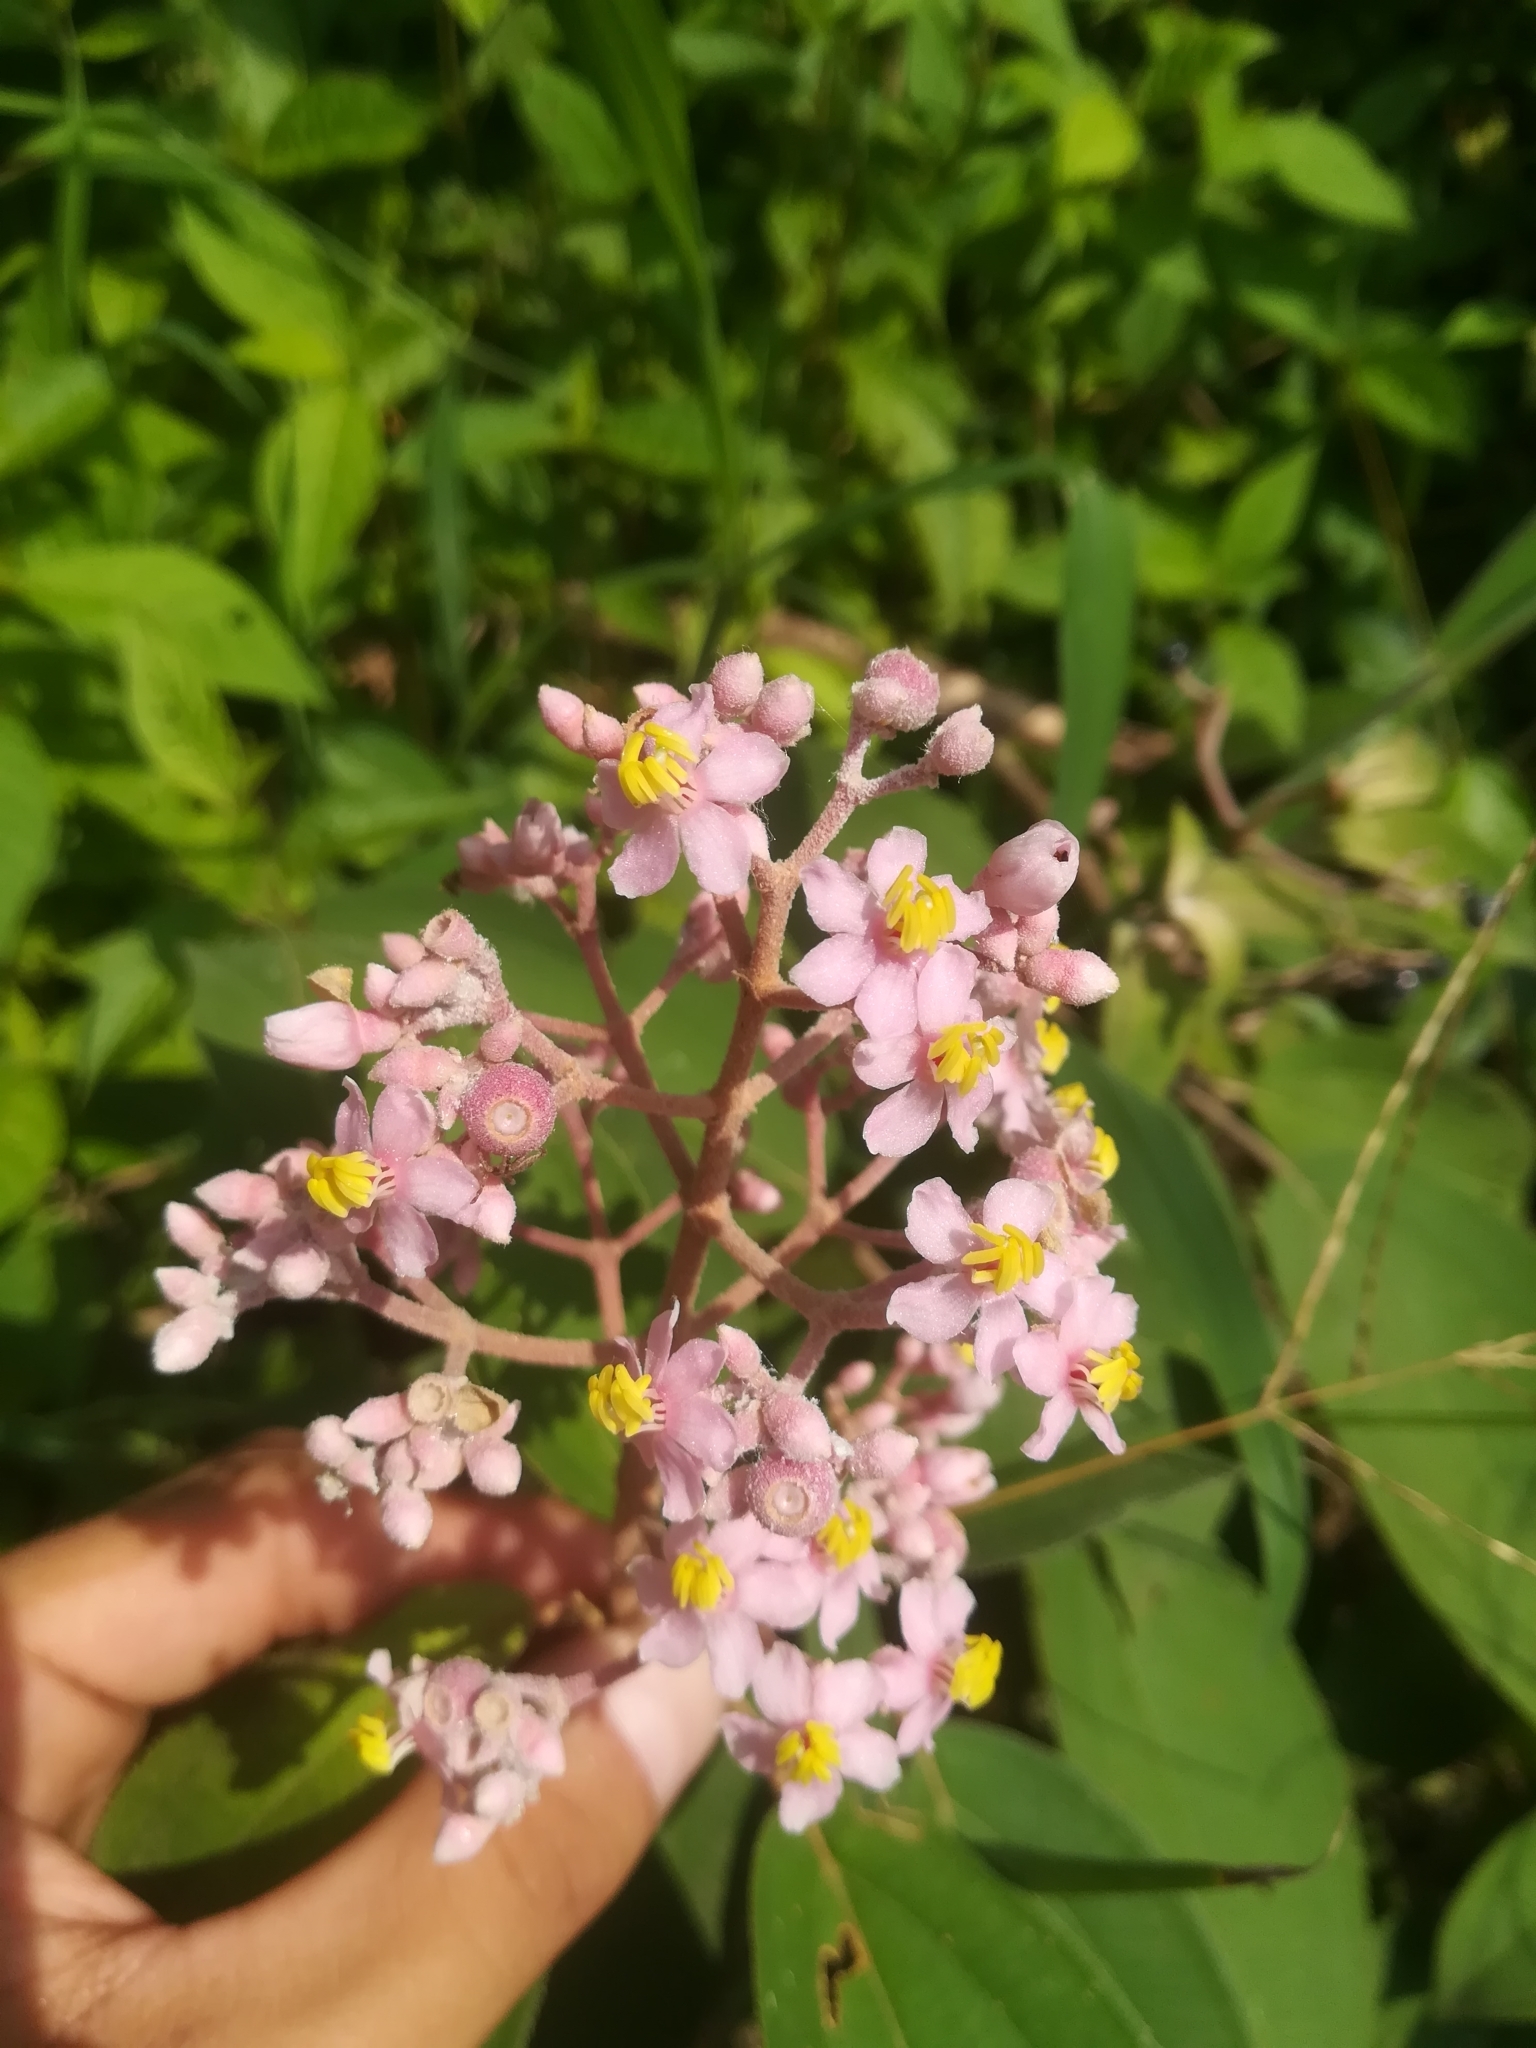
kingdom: Plantae
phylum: Tracheophyta
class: Magnoliopsida
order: Myrtales
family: Melastomataceae
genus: Miconia
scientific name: Miconia xalapensis
